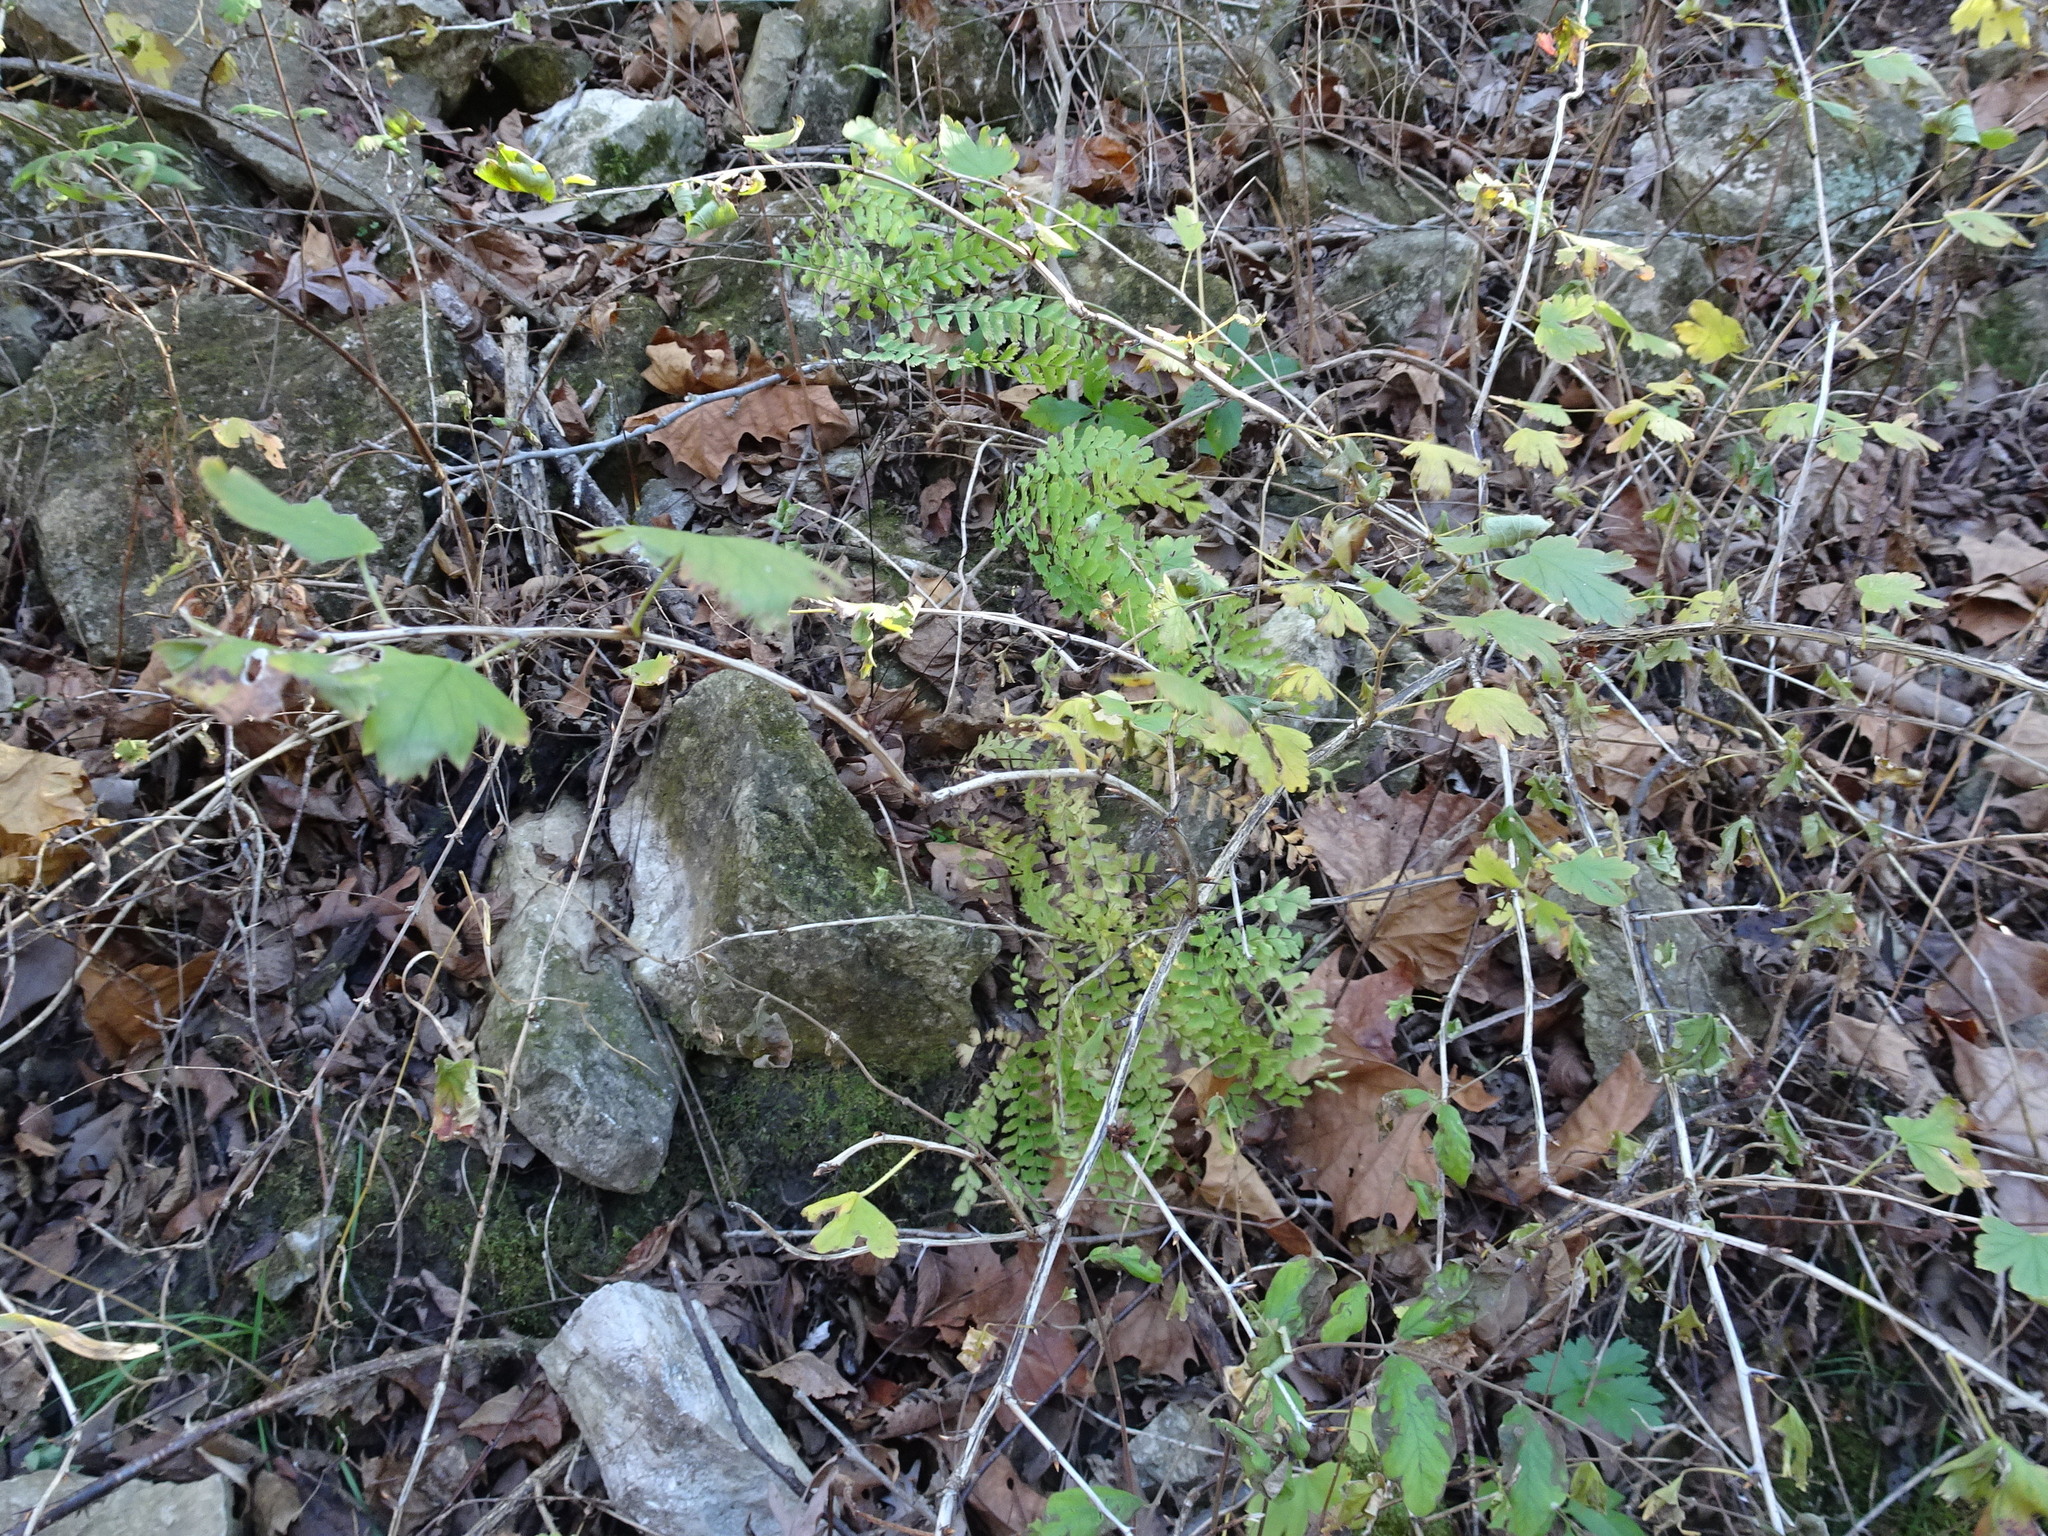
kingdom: Plantae
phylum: Tracheophyta
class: Polypodiopsida
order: Polypodiales
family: Pteridaceae
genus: Adiantum
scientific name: Adiantum pedatum
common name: Five-finger fern
